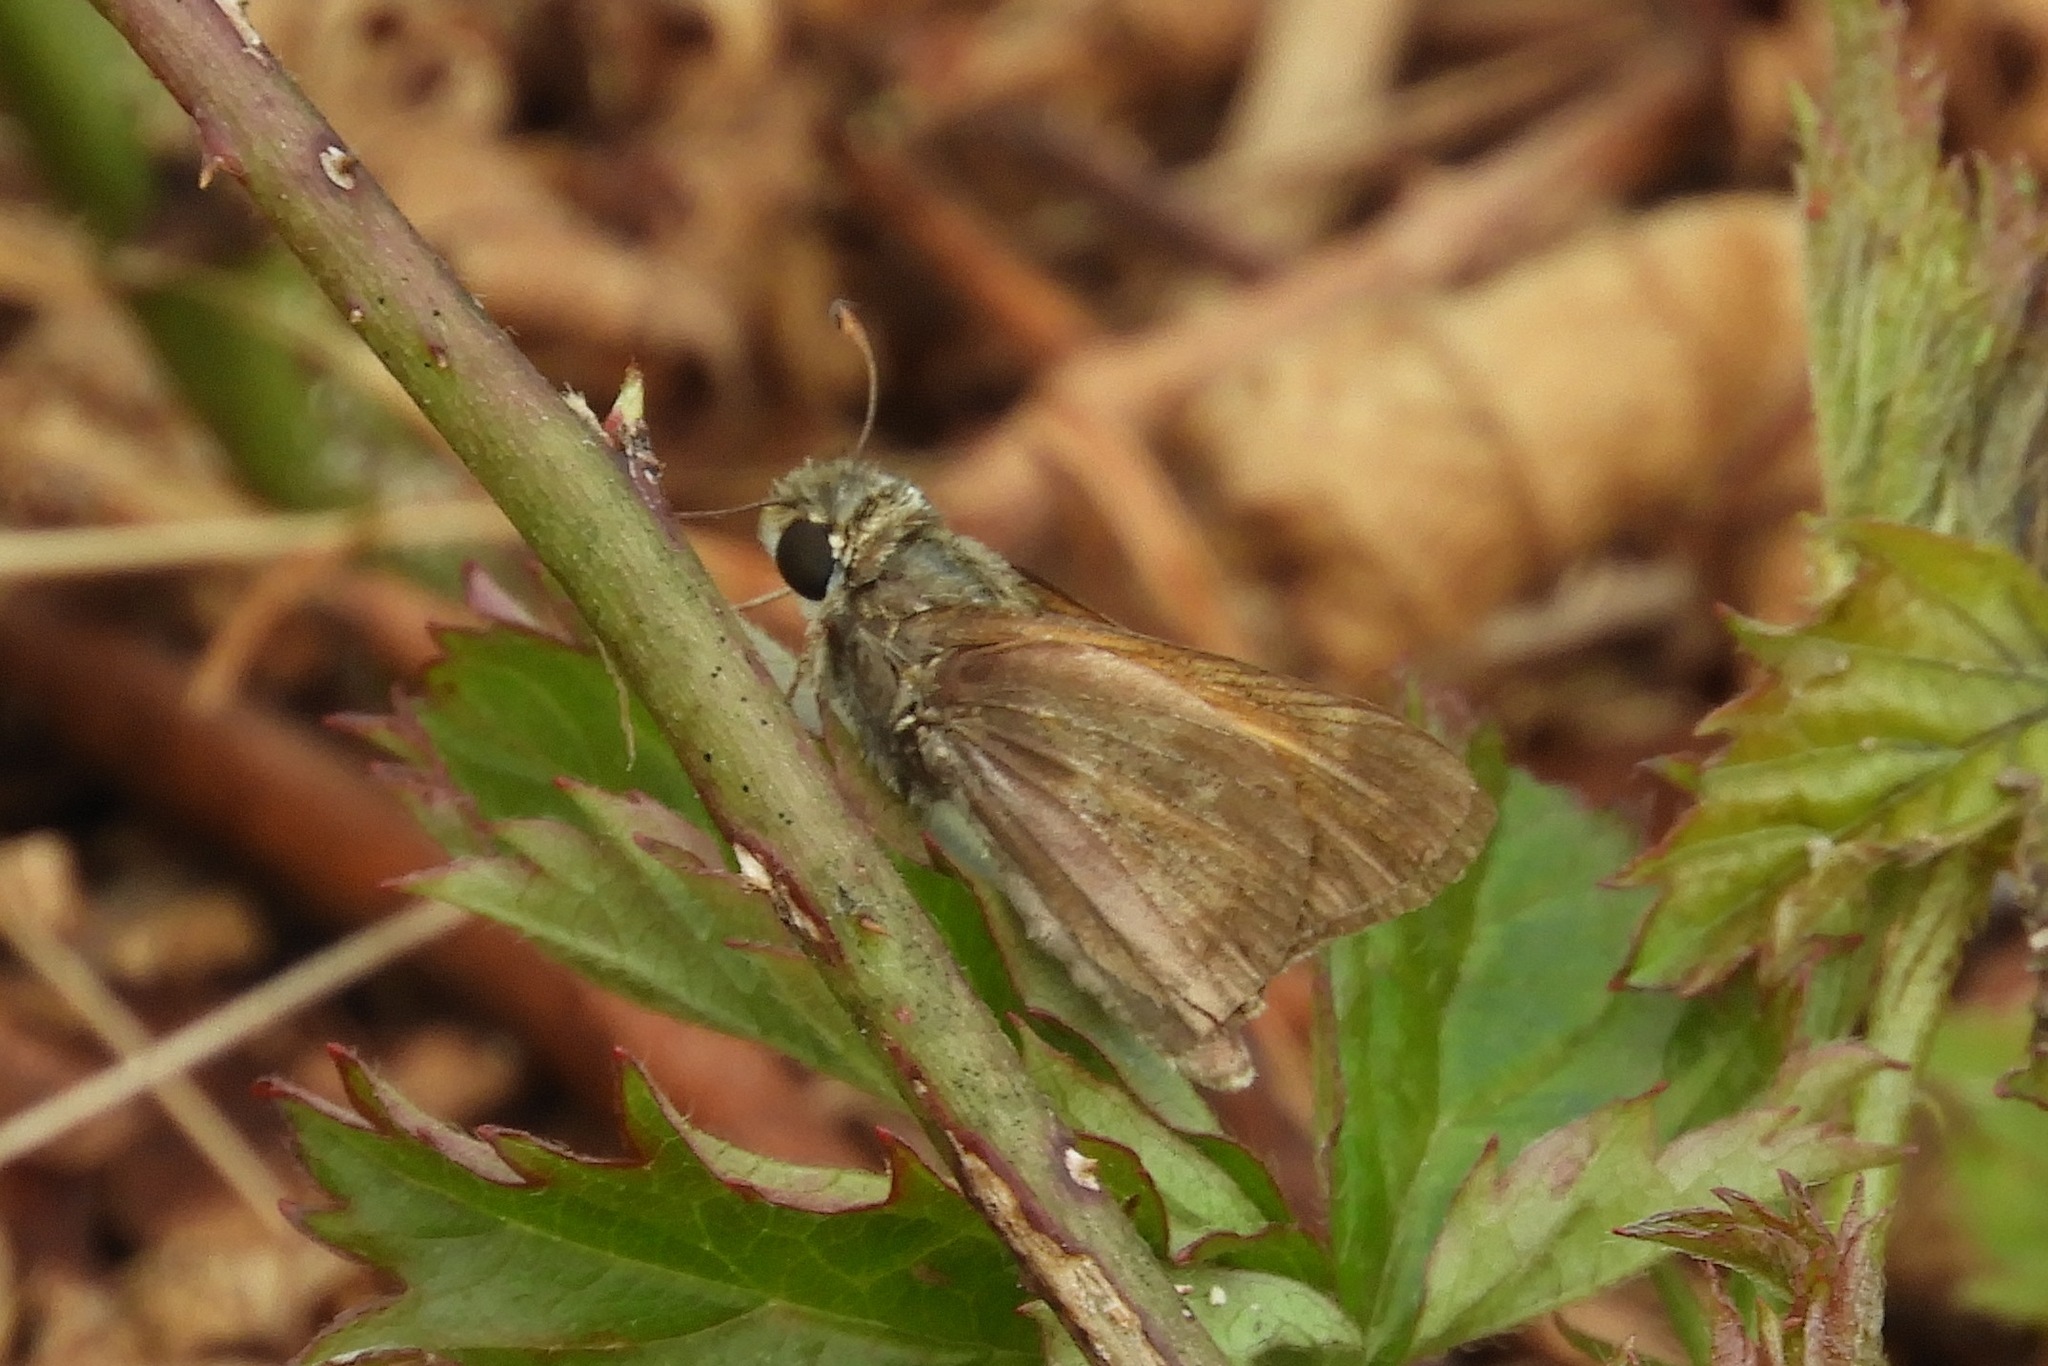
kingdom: Animalia
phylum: Arthropoda
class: Insecta
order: Lepidoptera
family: Hesperiidae
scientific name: Hesperiidae
